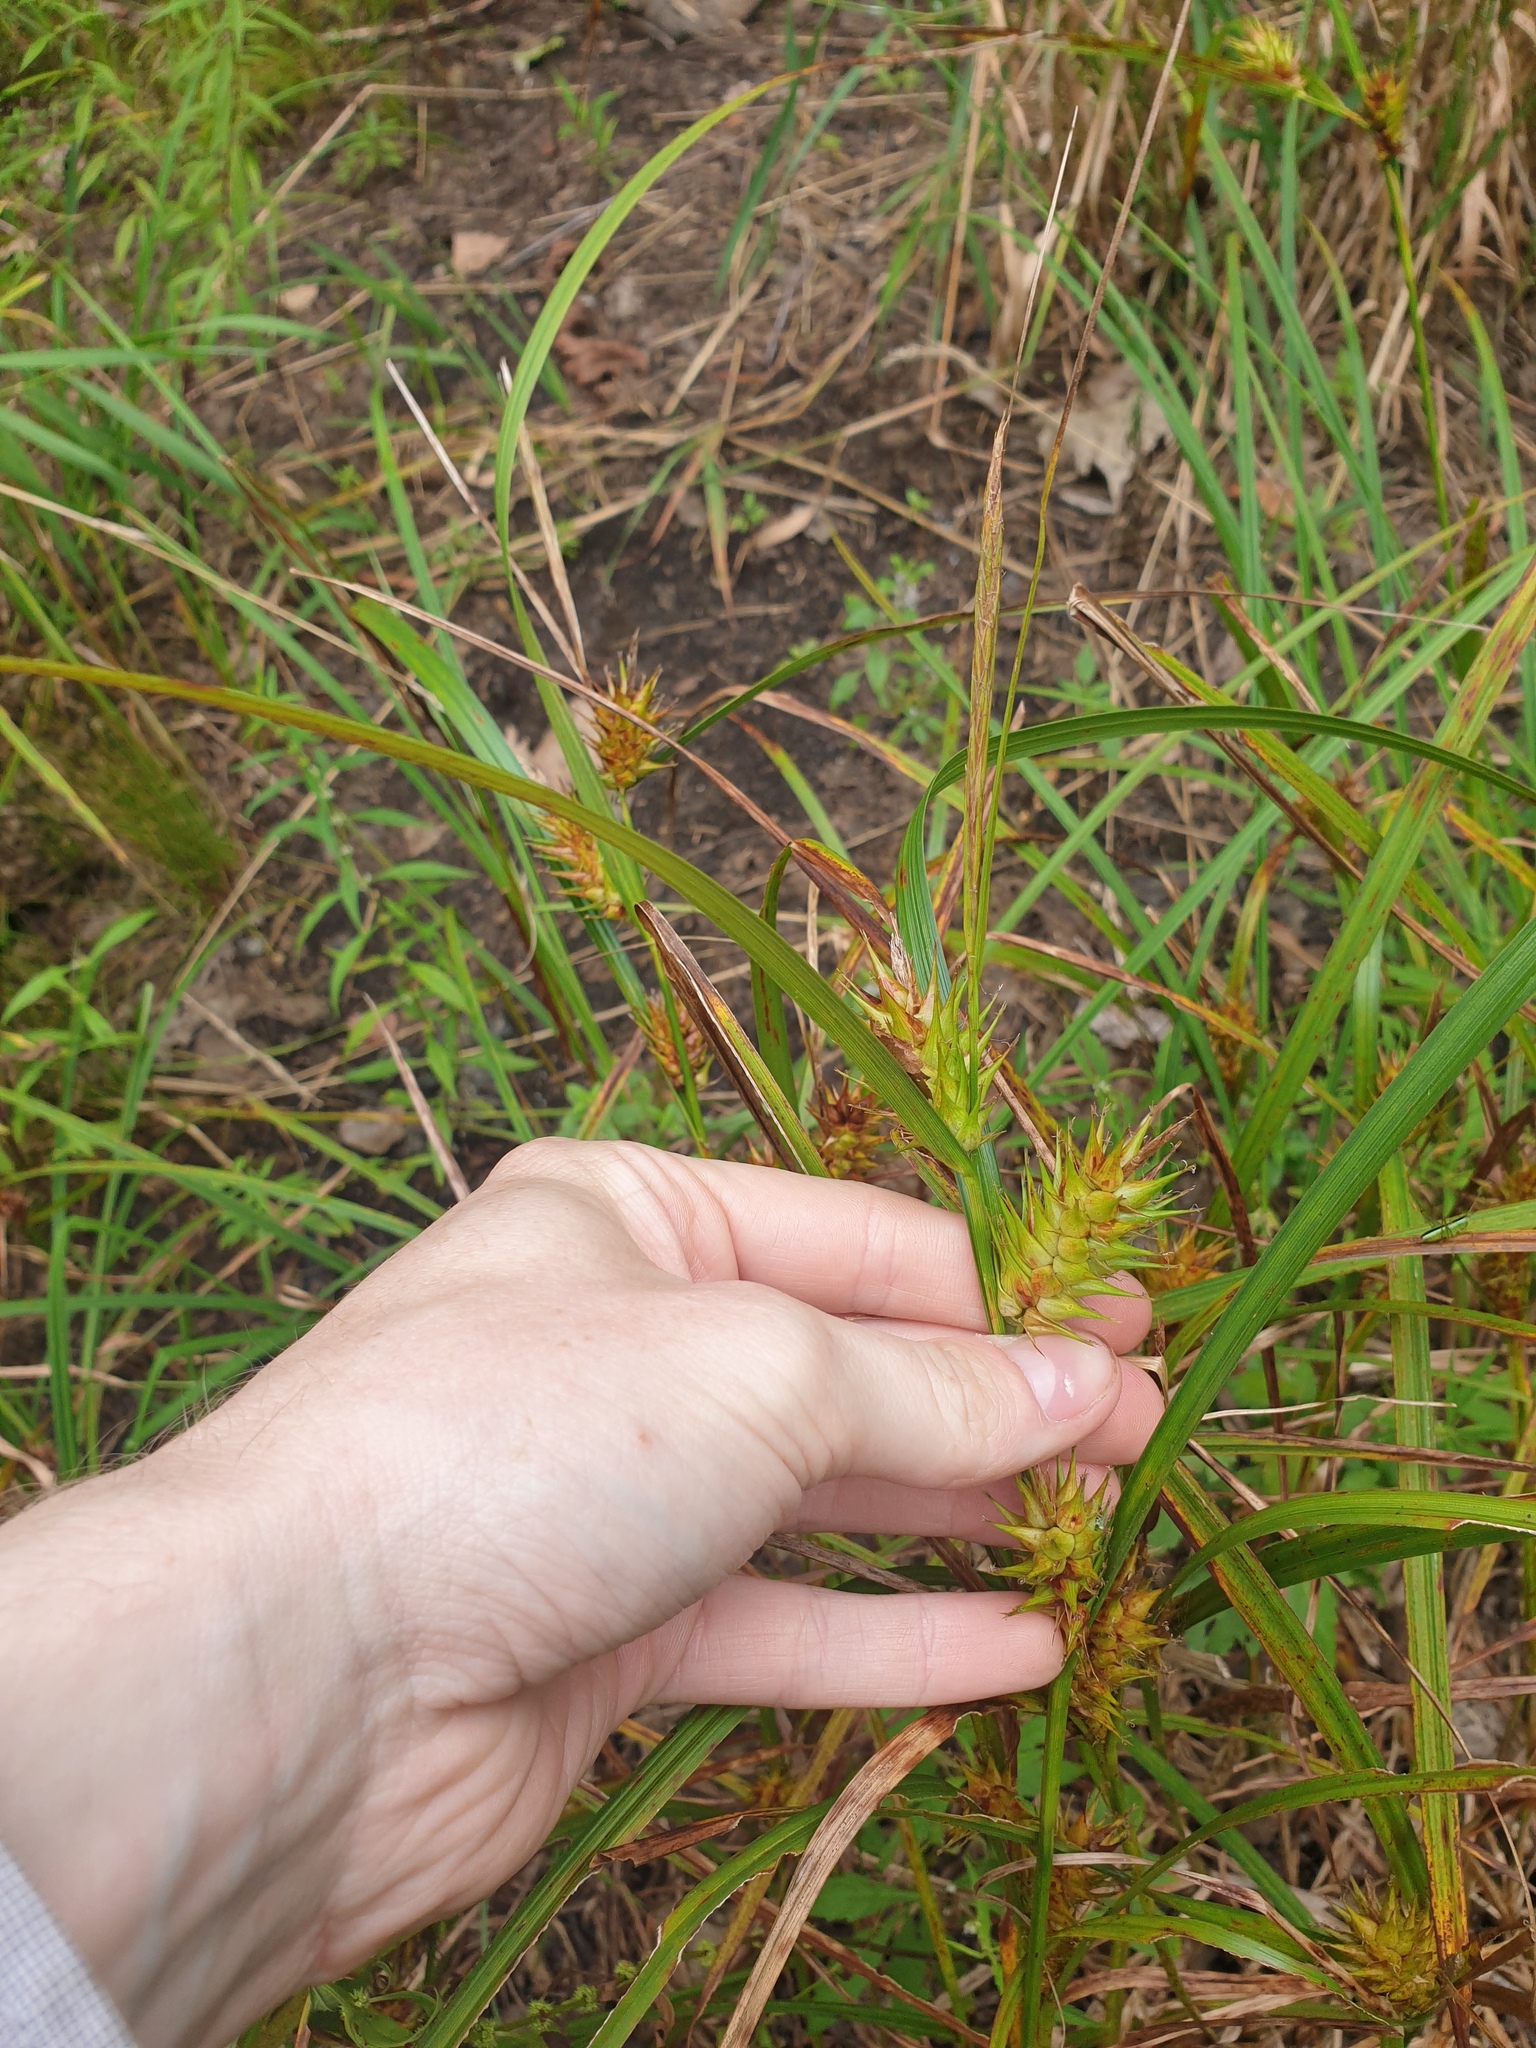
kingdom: Plantae
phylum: Tracheophyta
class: Liliopsida
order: Poales
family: Cyperaceae
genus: Carex
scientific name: Carex lupulina
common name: Hop sedge
